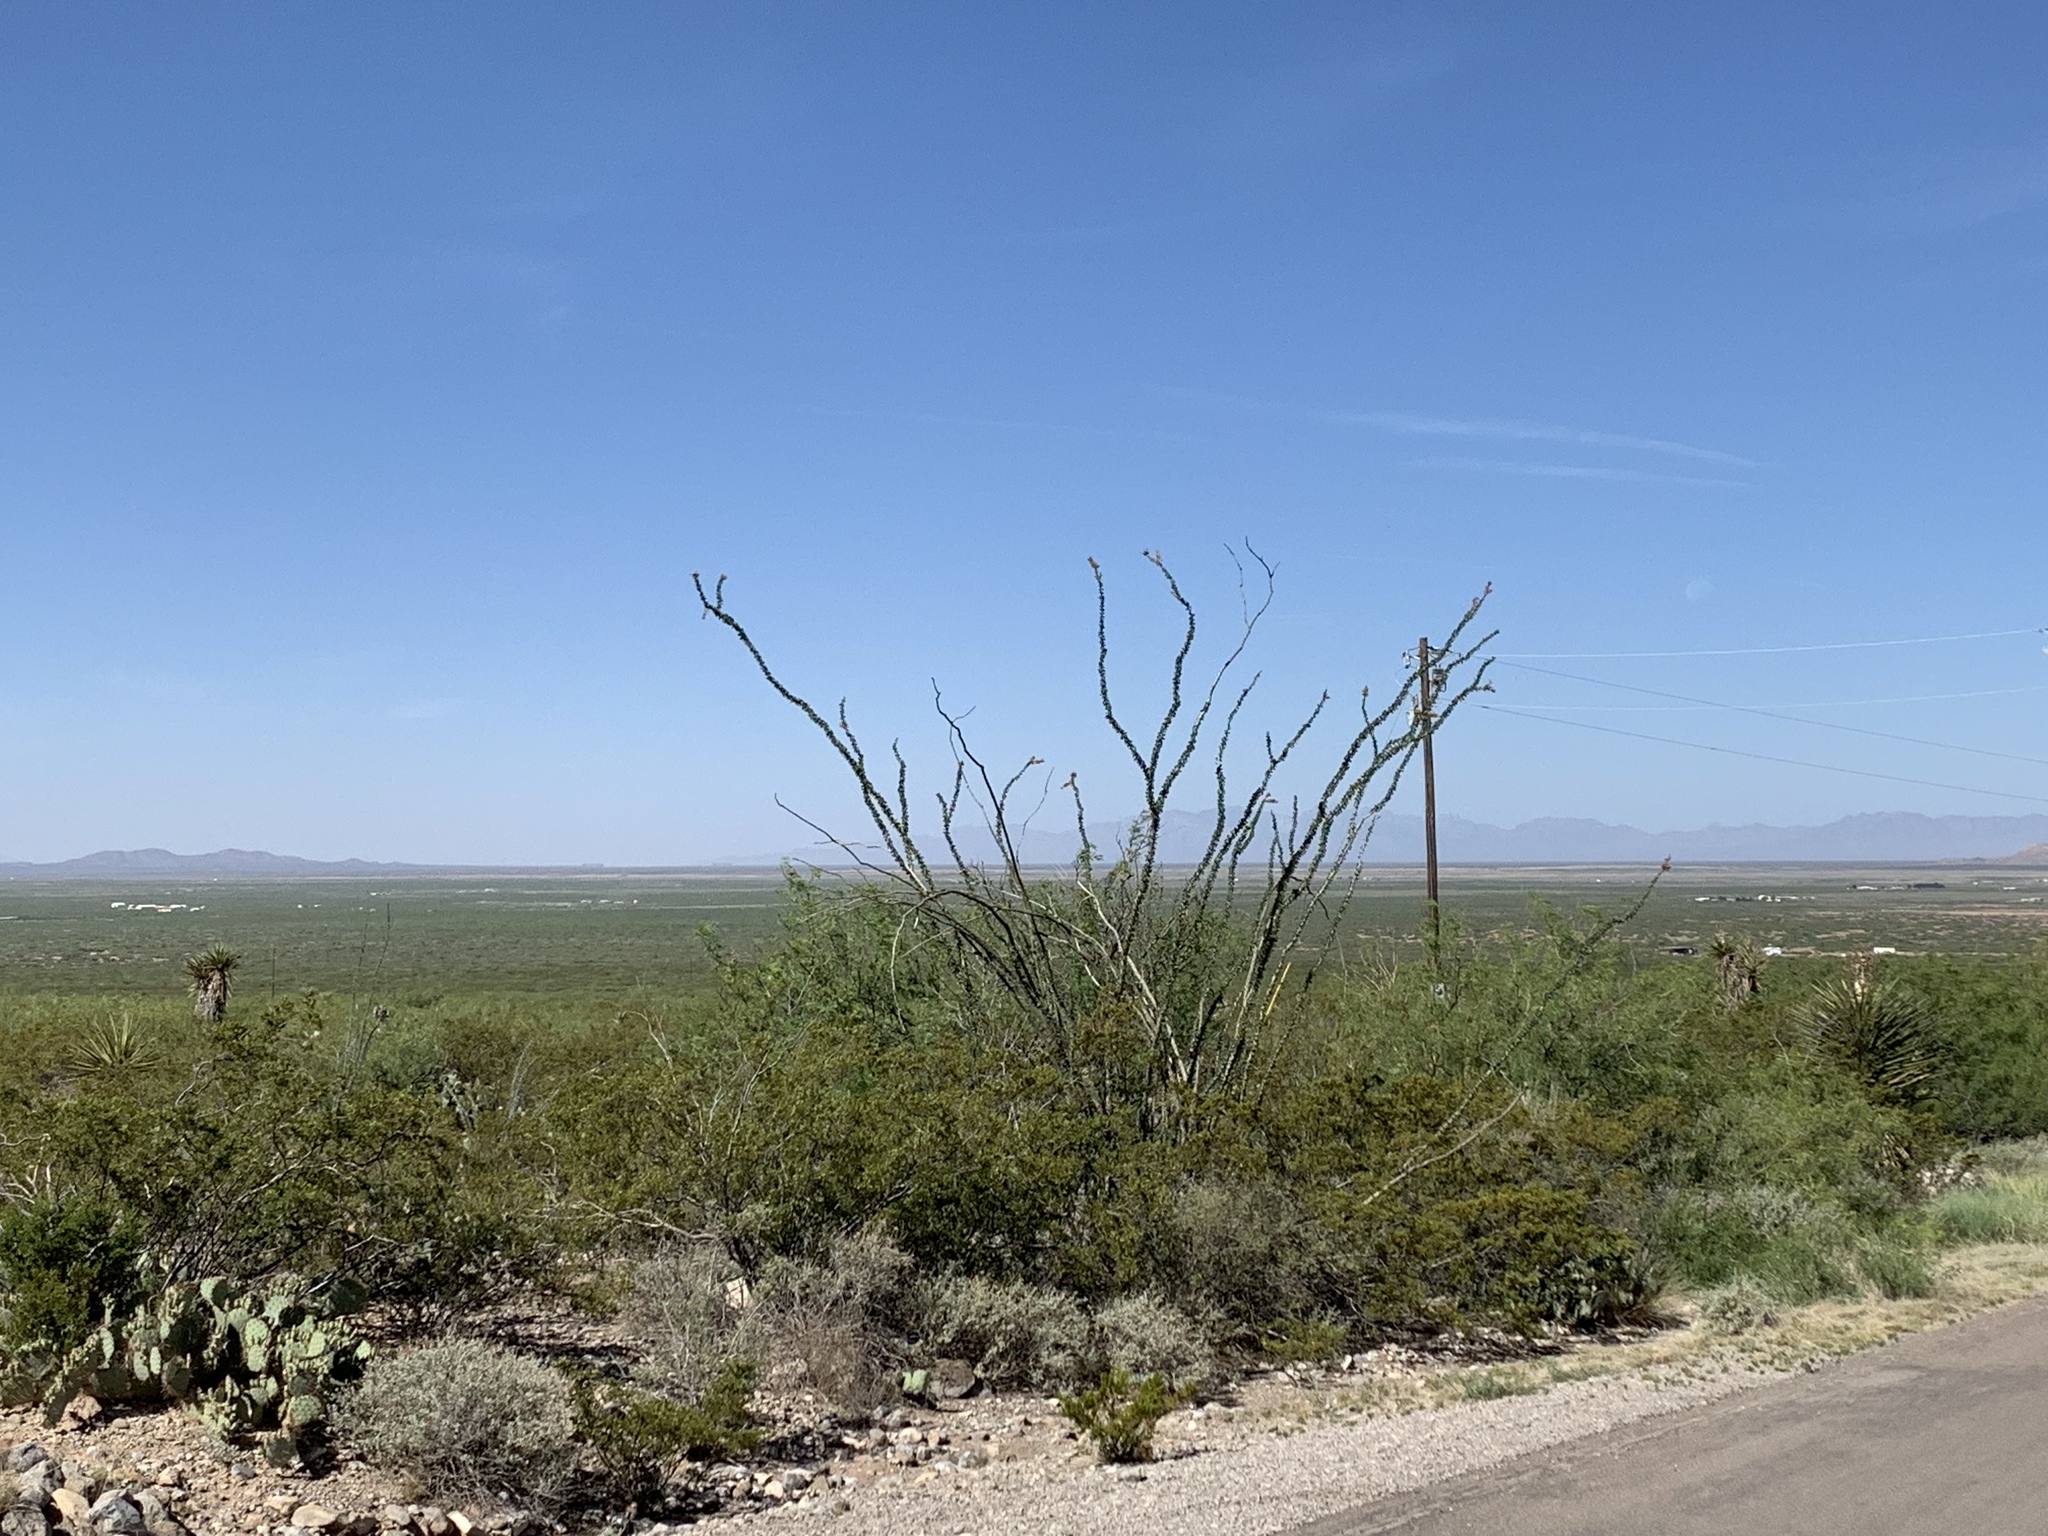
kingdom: Plantae
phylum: Tracheophyta
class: Magnoliopsida
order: Ericales
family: Fouquieriaceae
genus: Fouquieria
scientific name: Fouquieria splendens
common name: Vine-cactus
